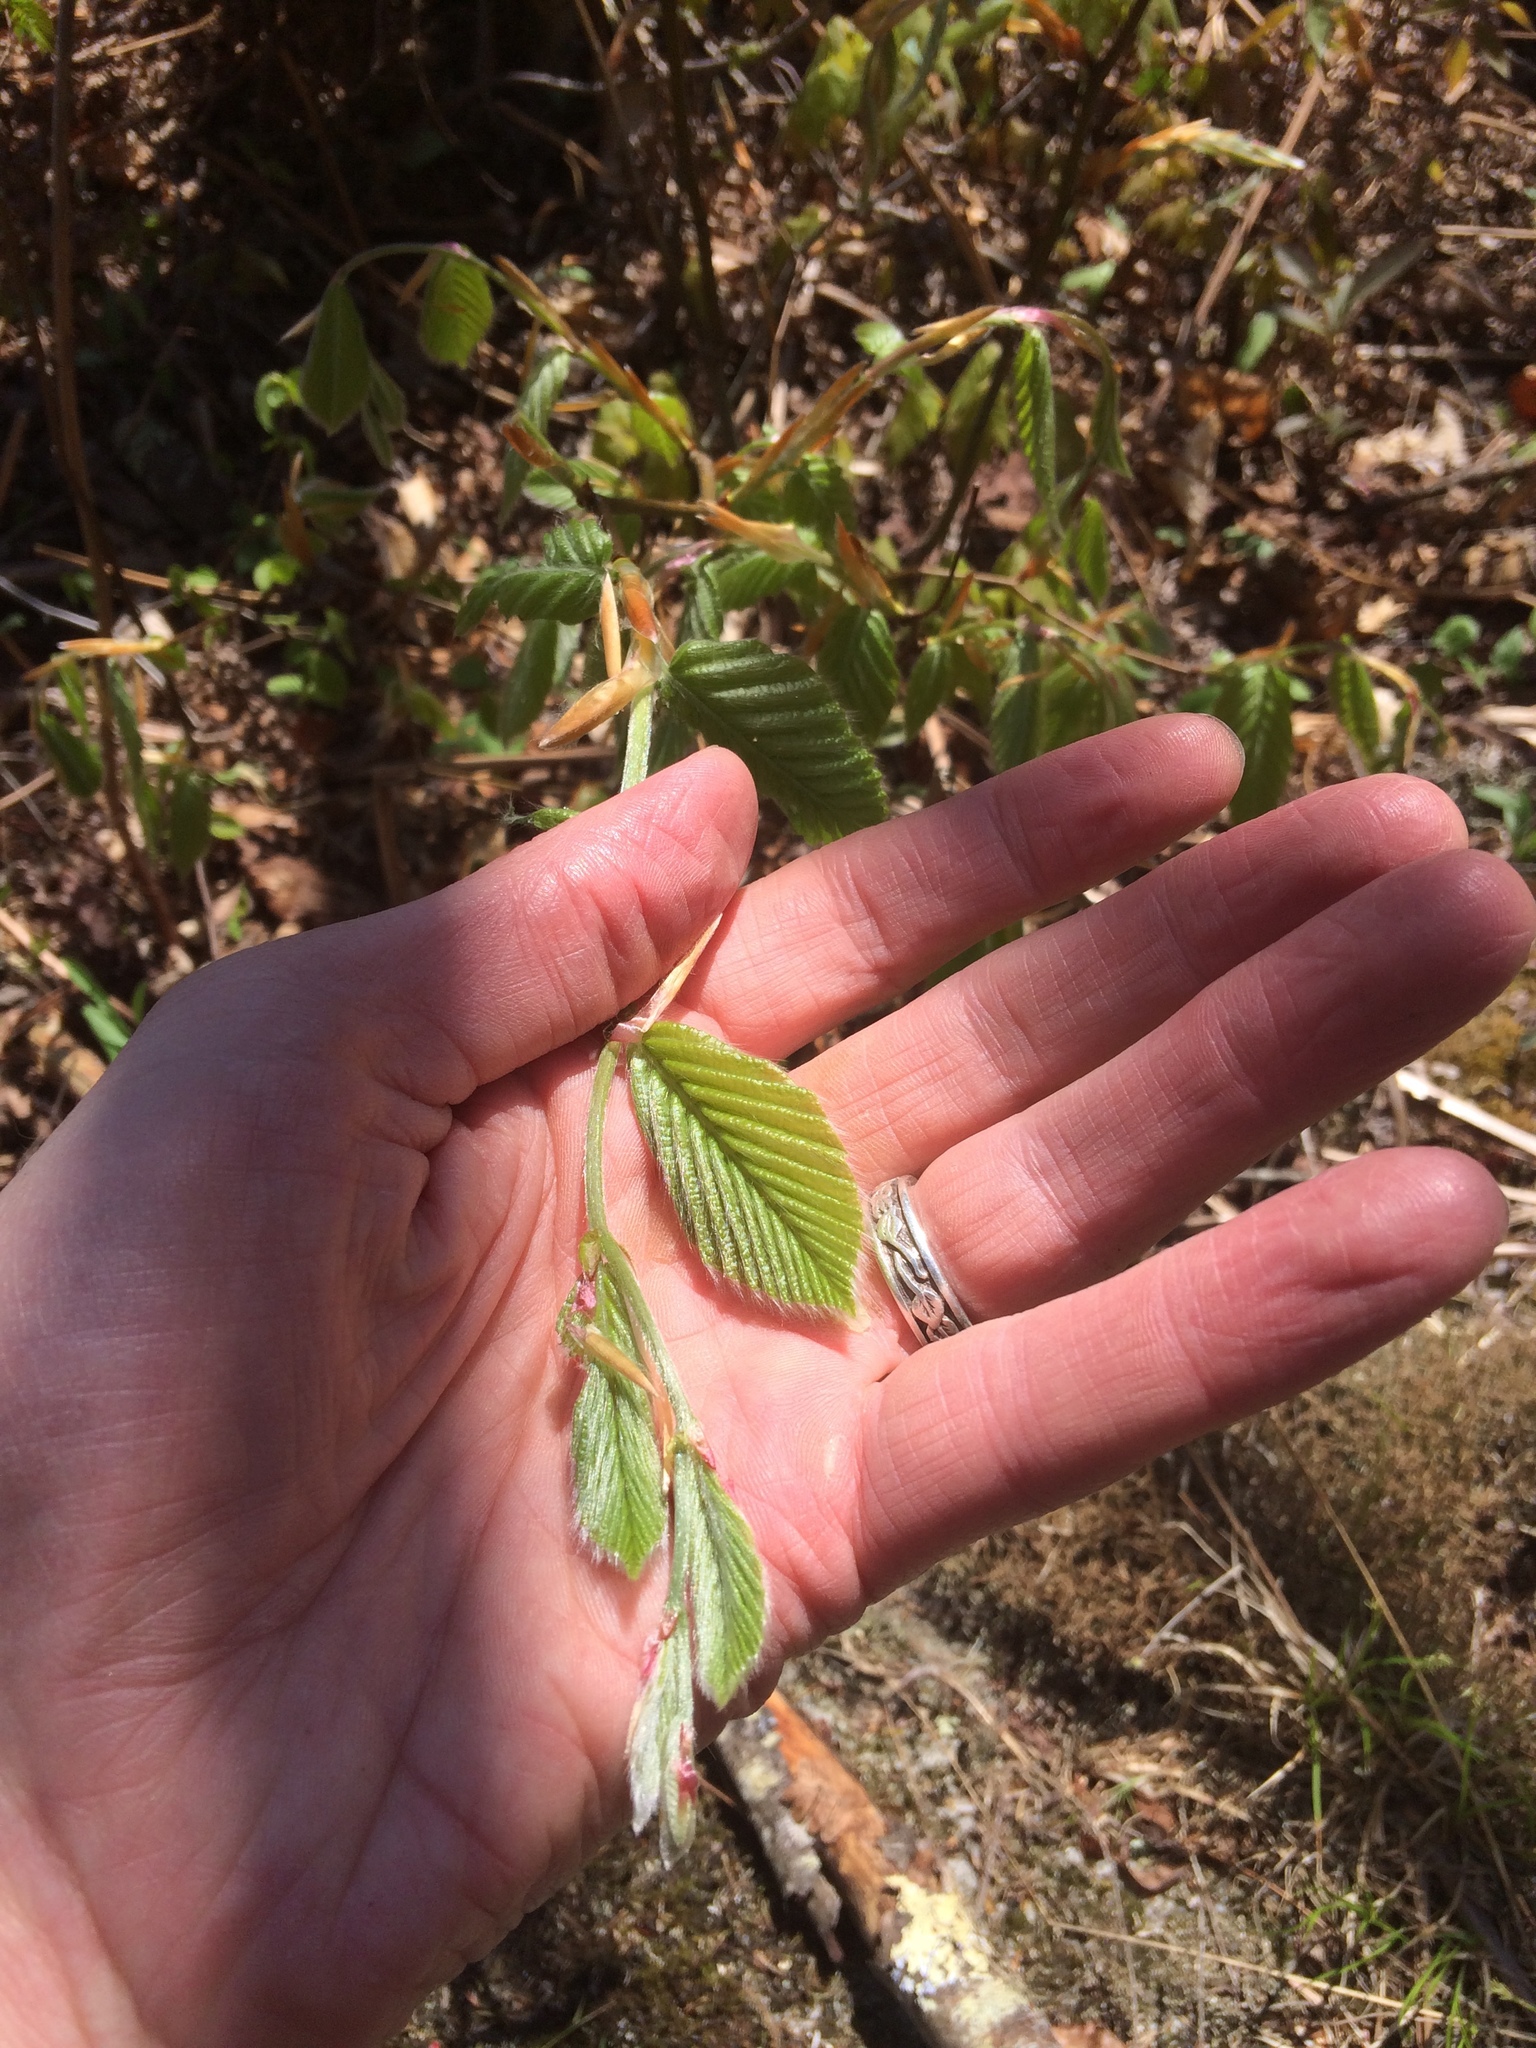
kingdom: Plantae
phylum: Tracheophyta
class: Magnoliopsida
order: Fagales
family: Fagaceae
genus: Fagus
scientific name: Fagus grandifolia
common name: American beech
